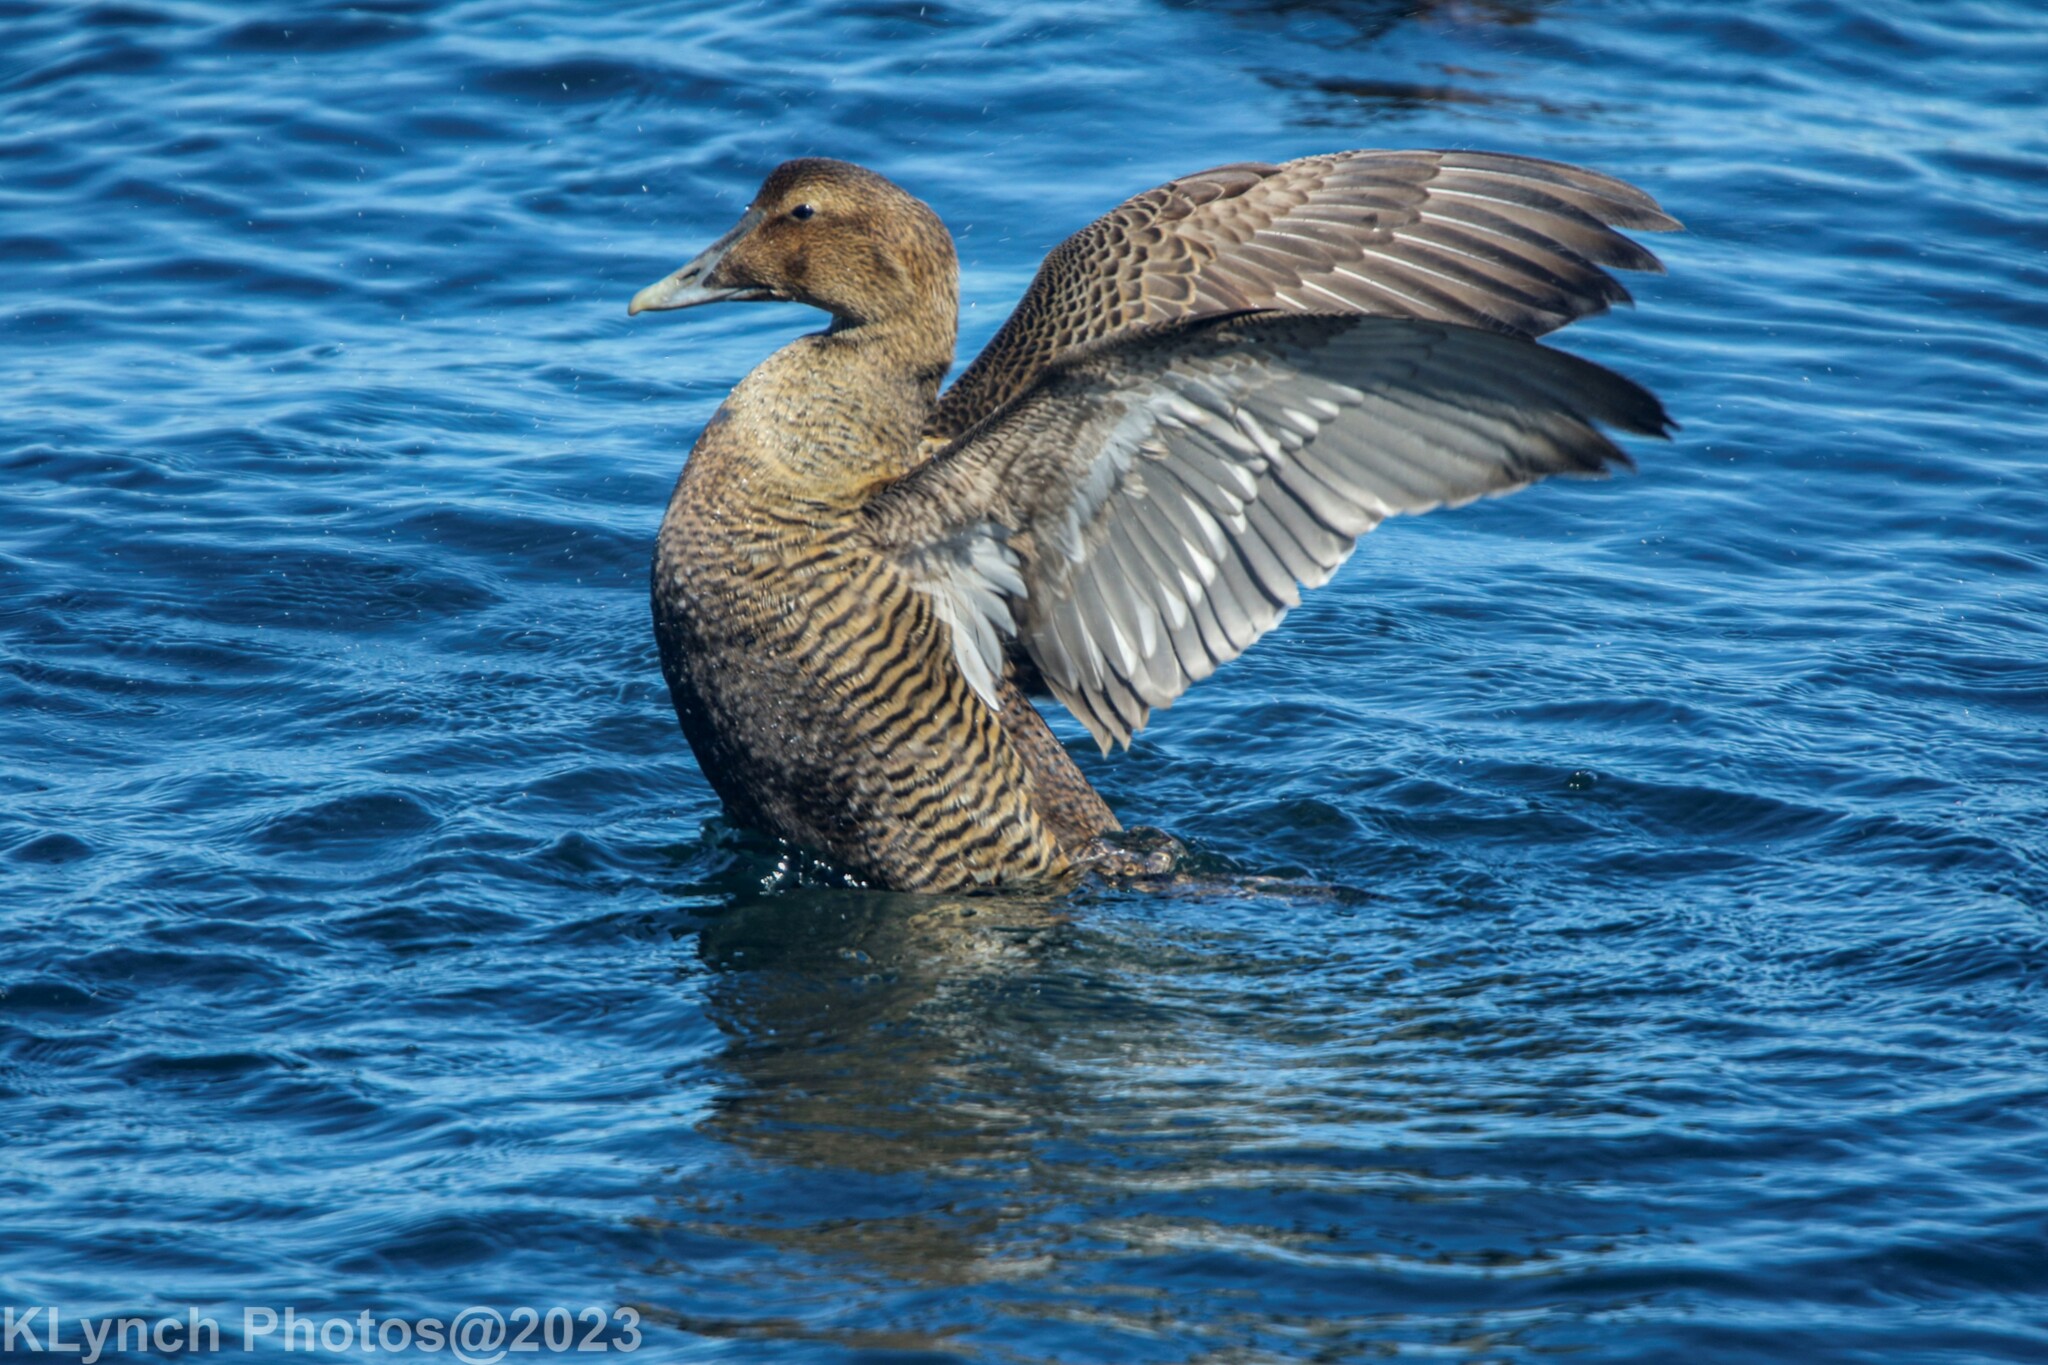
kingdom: Animalia
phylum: Chordata
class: Aves
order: Anseriformes
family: Anatidae
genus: Somateria
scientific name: Somateria mollissima
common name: Common eider
